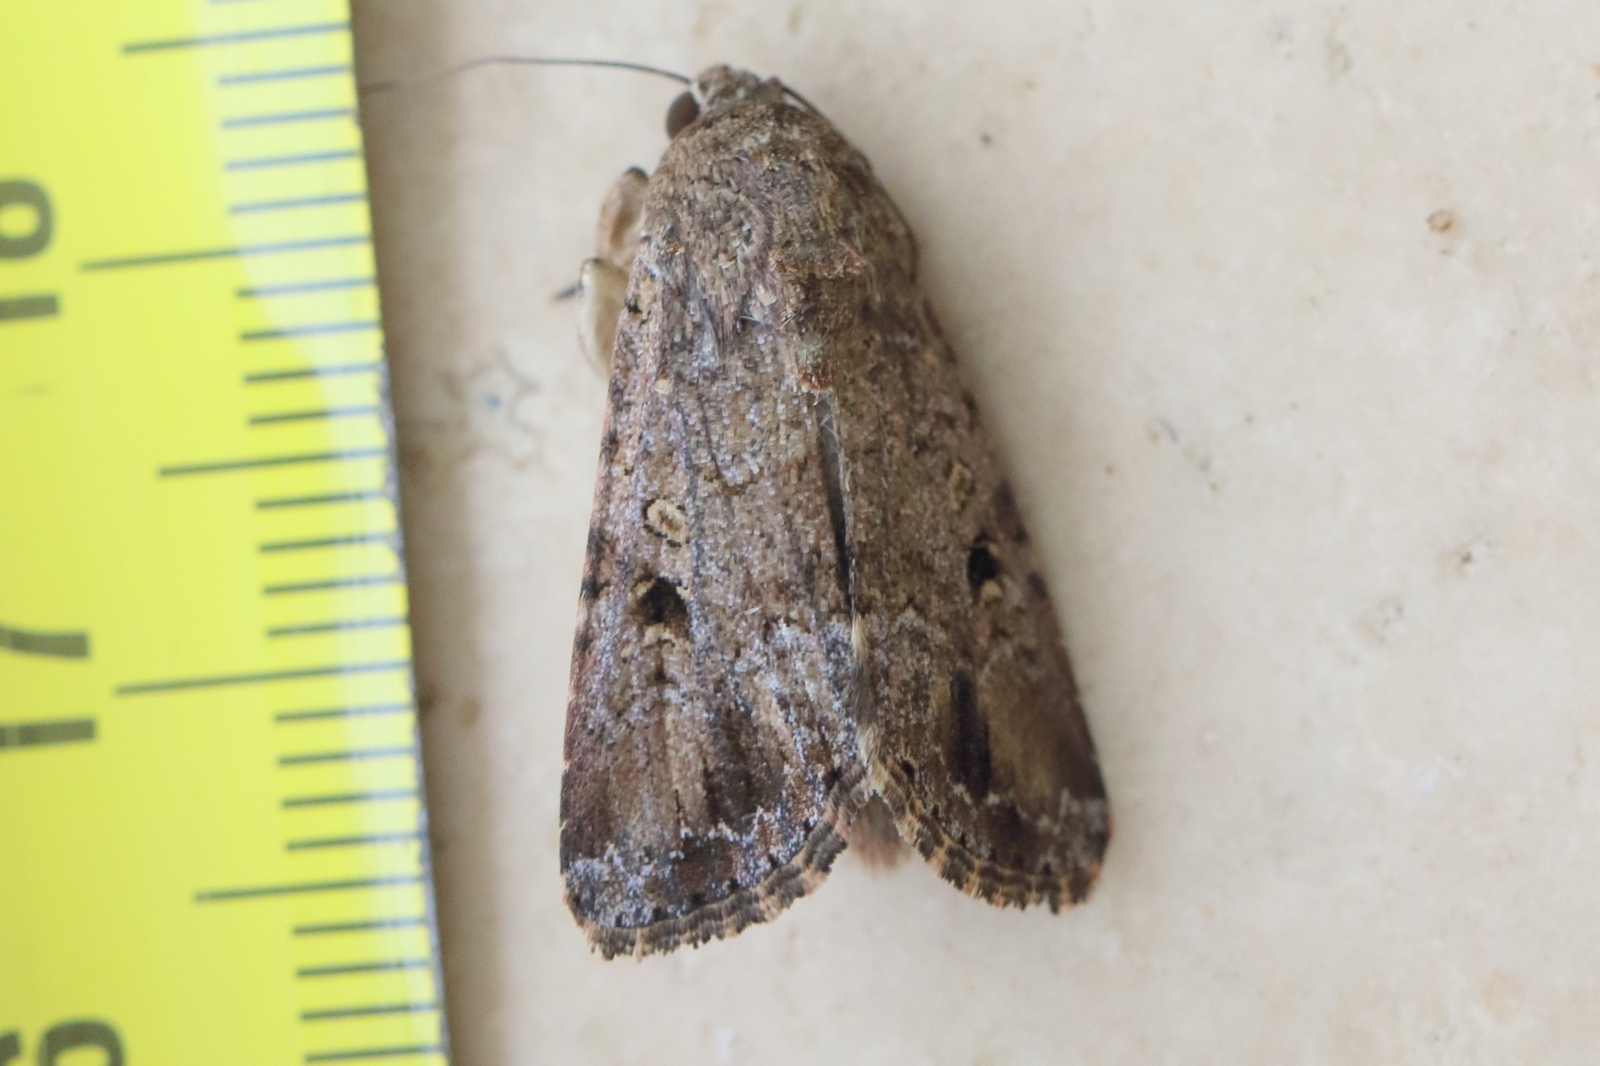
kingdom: Animalia
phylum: Arthropoda
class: Insecta
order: Lepidoptera
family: Noctuidae
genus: Spodoptera
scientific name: Spodoptera mauritia
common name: Lawn armyworm
